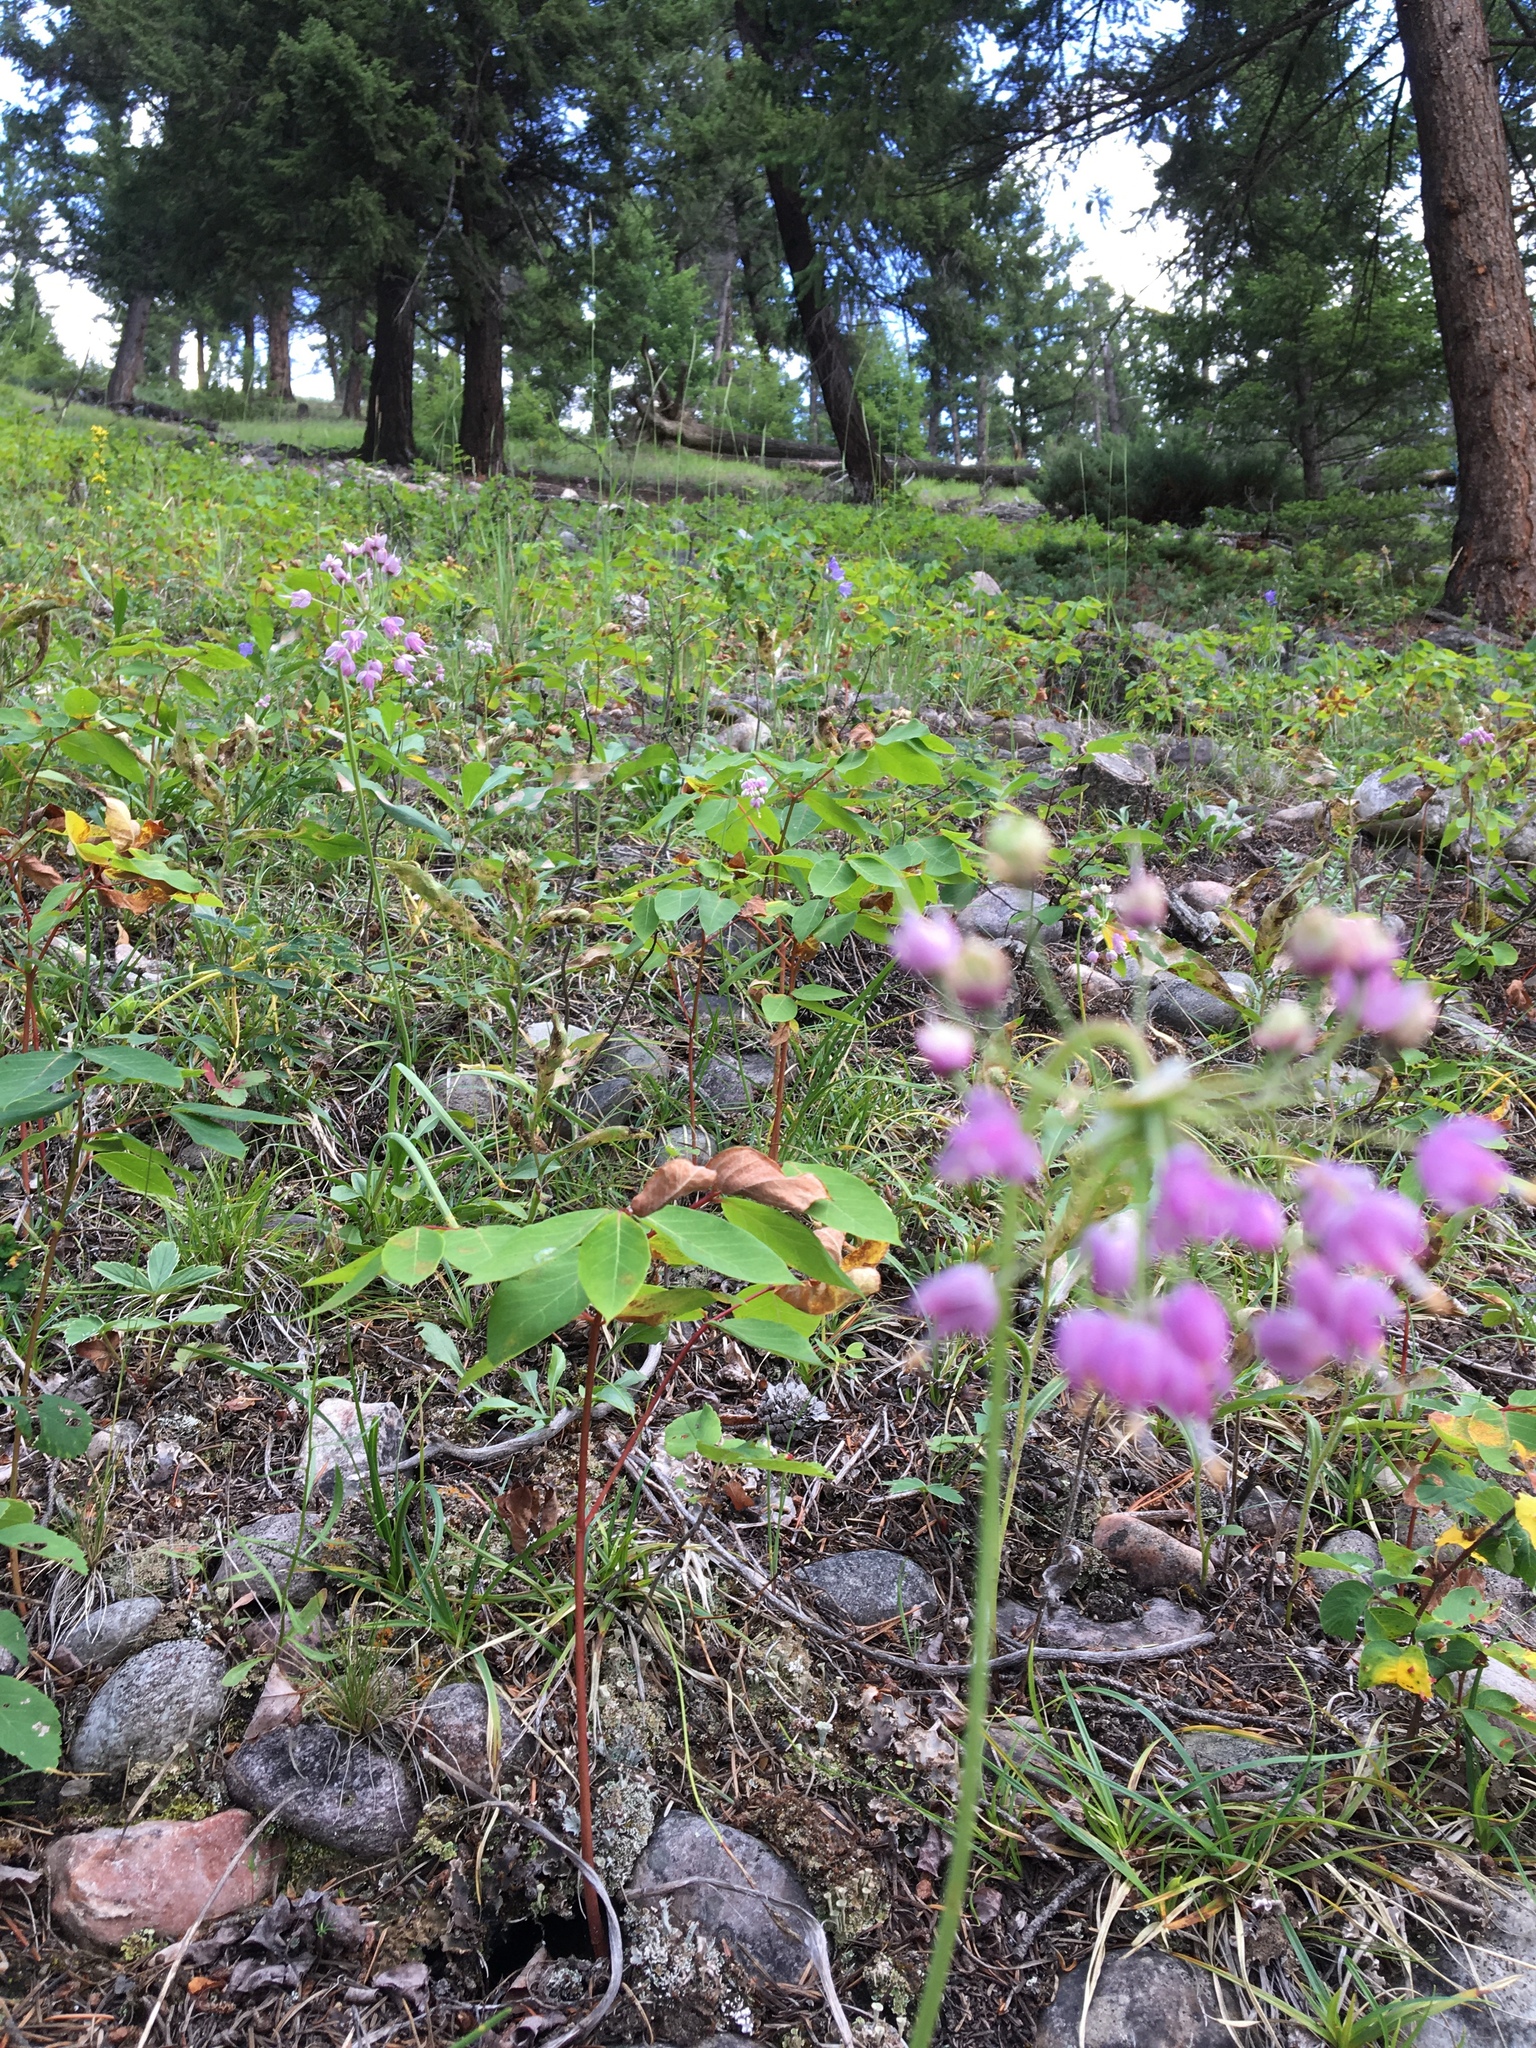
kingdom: Plantae
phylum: Tracheophyta
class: Liliopsida
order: Asparagales
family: Amaryllidaceae
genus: Allium
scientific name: Allium cernuum
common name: Nodding onion
